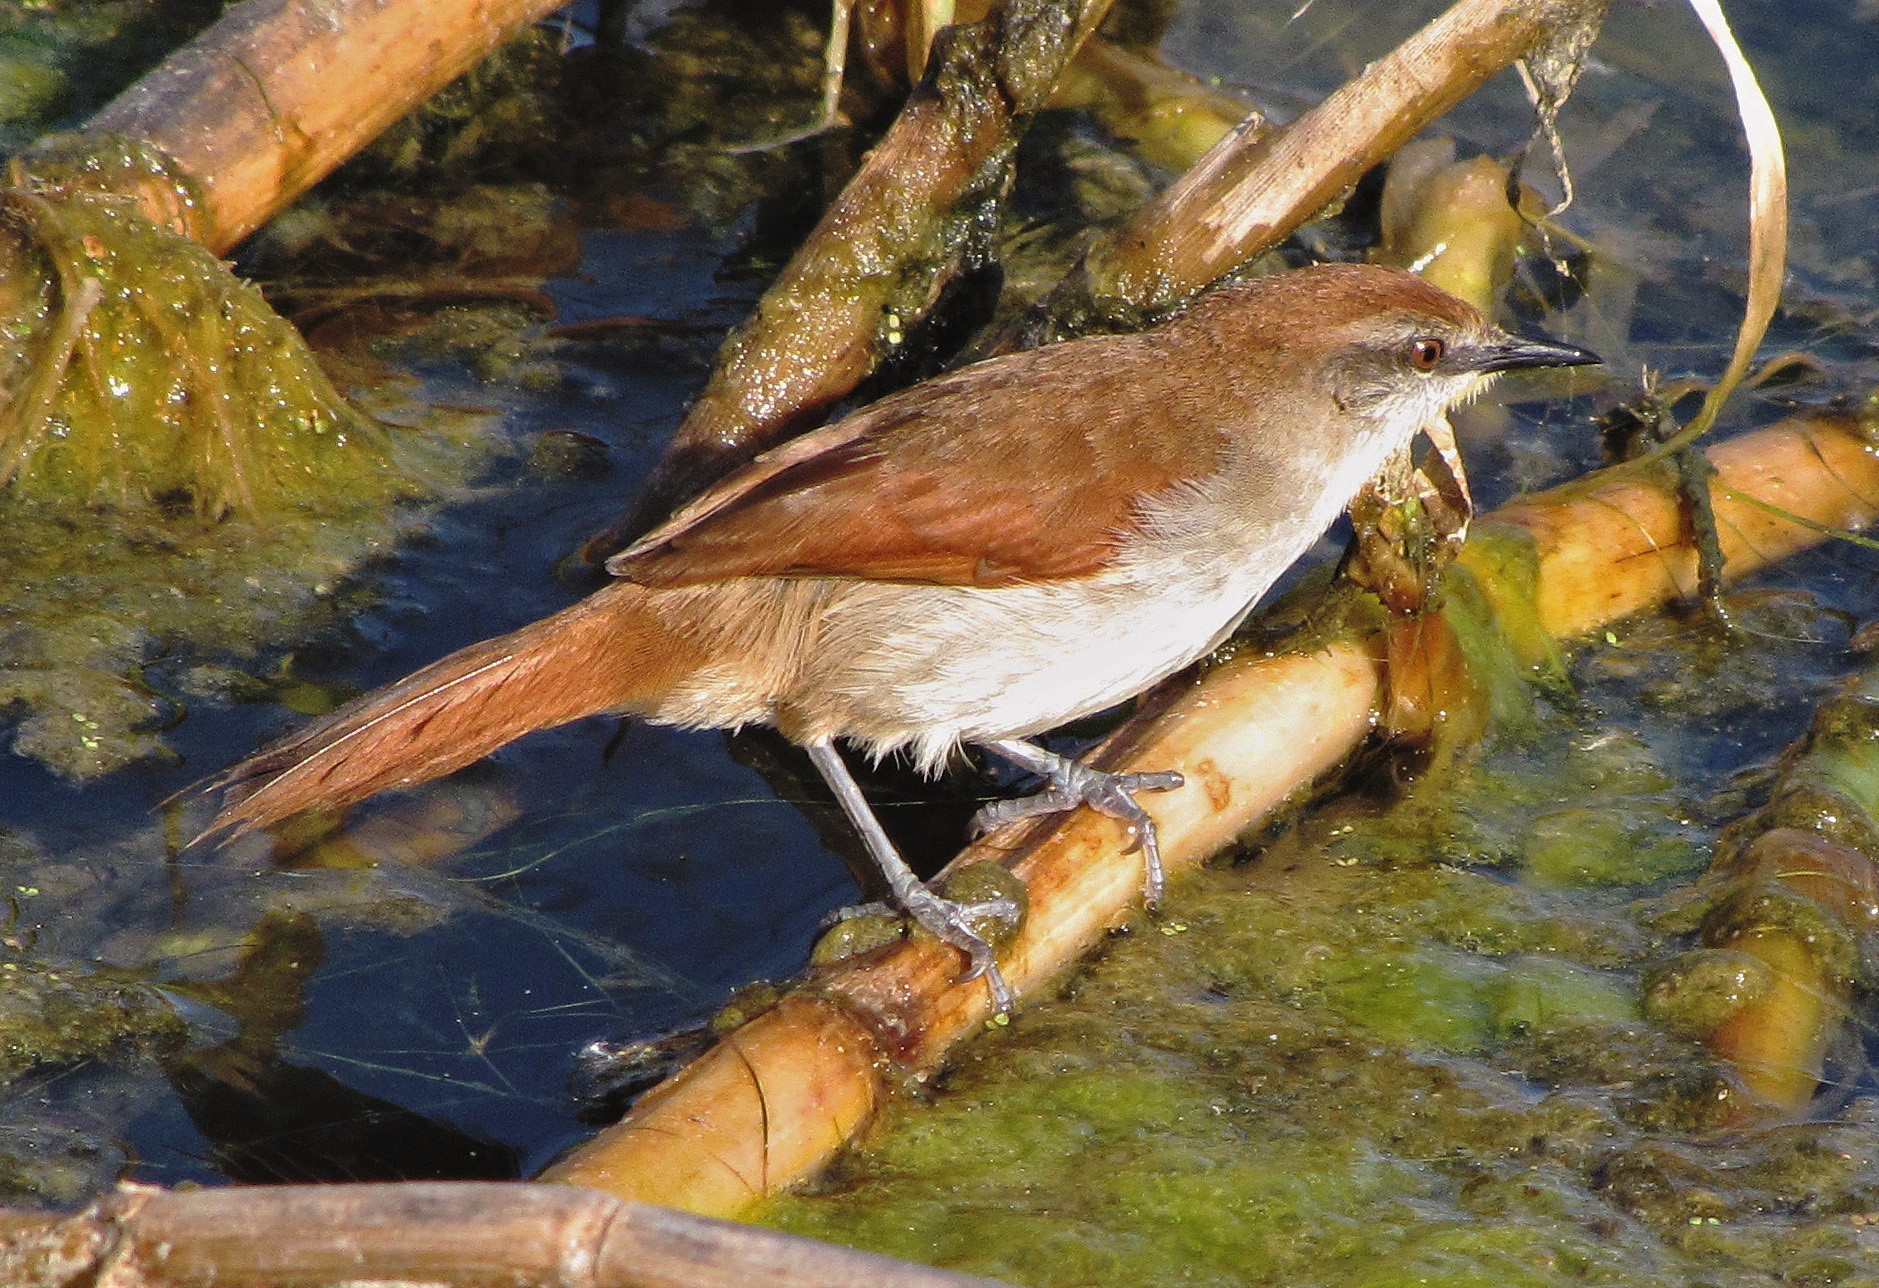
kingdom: Animalia
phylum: Chordata
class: Aves
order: Passeriformes
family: Furnariidae
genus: Certhiaxis
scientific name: Certhiaxis cinnamomeus
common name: Yellow-chinned spinetail
